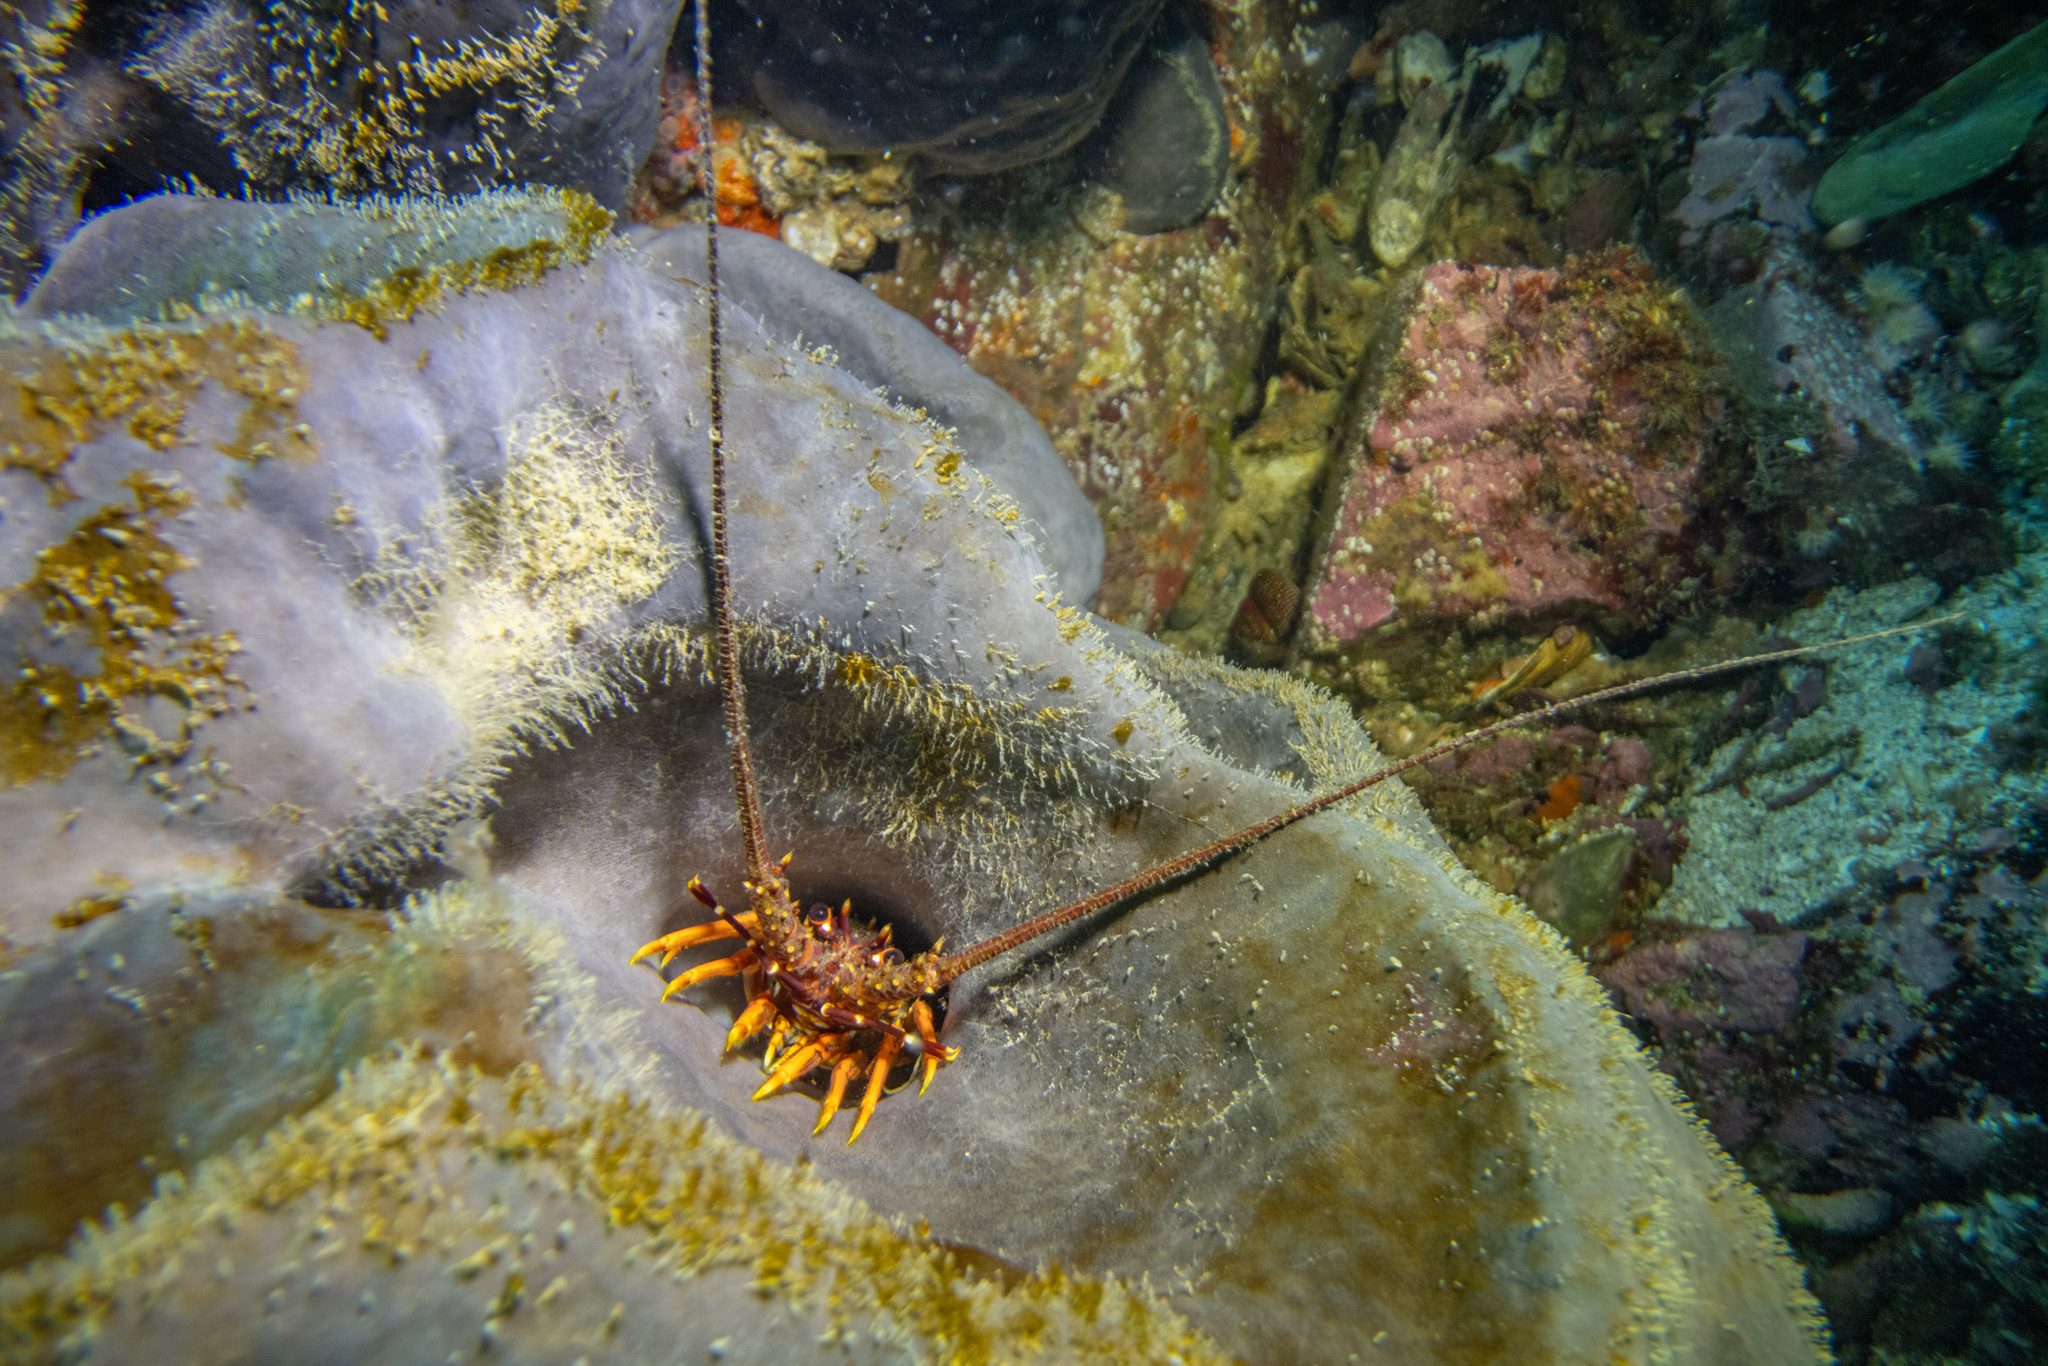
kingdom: Animalia
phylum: Arthropoda
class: Malacostraca
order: Decapoda
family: Palinuridae
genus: Jasus
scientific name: Jasus edwardsii
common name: Red rock lobster
